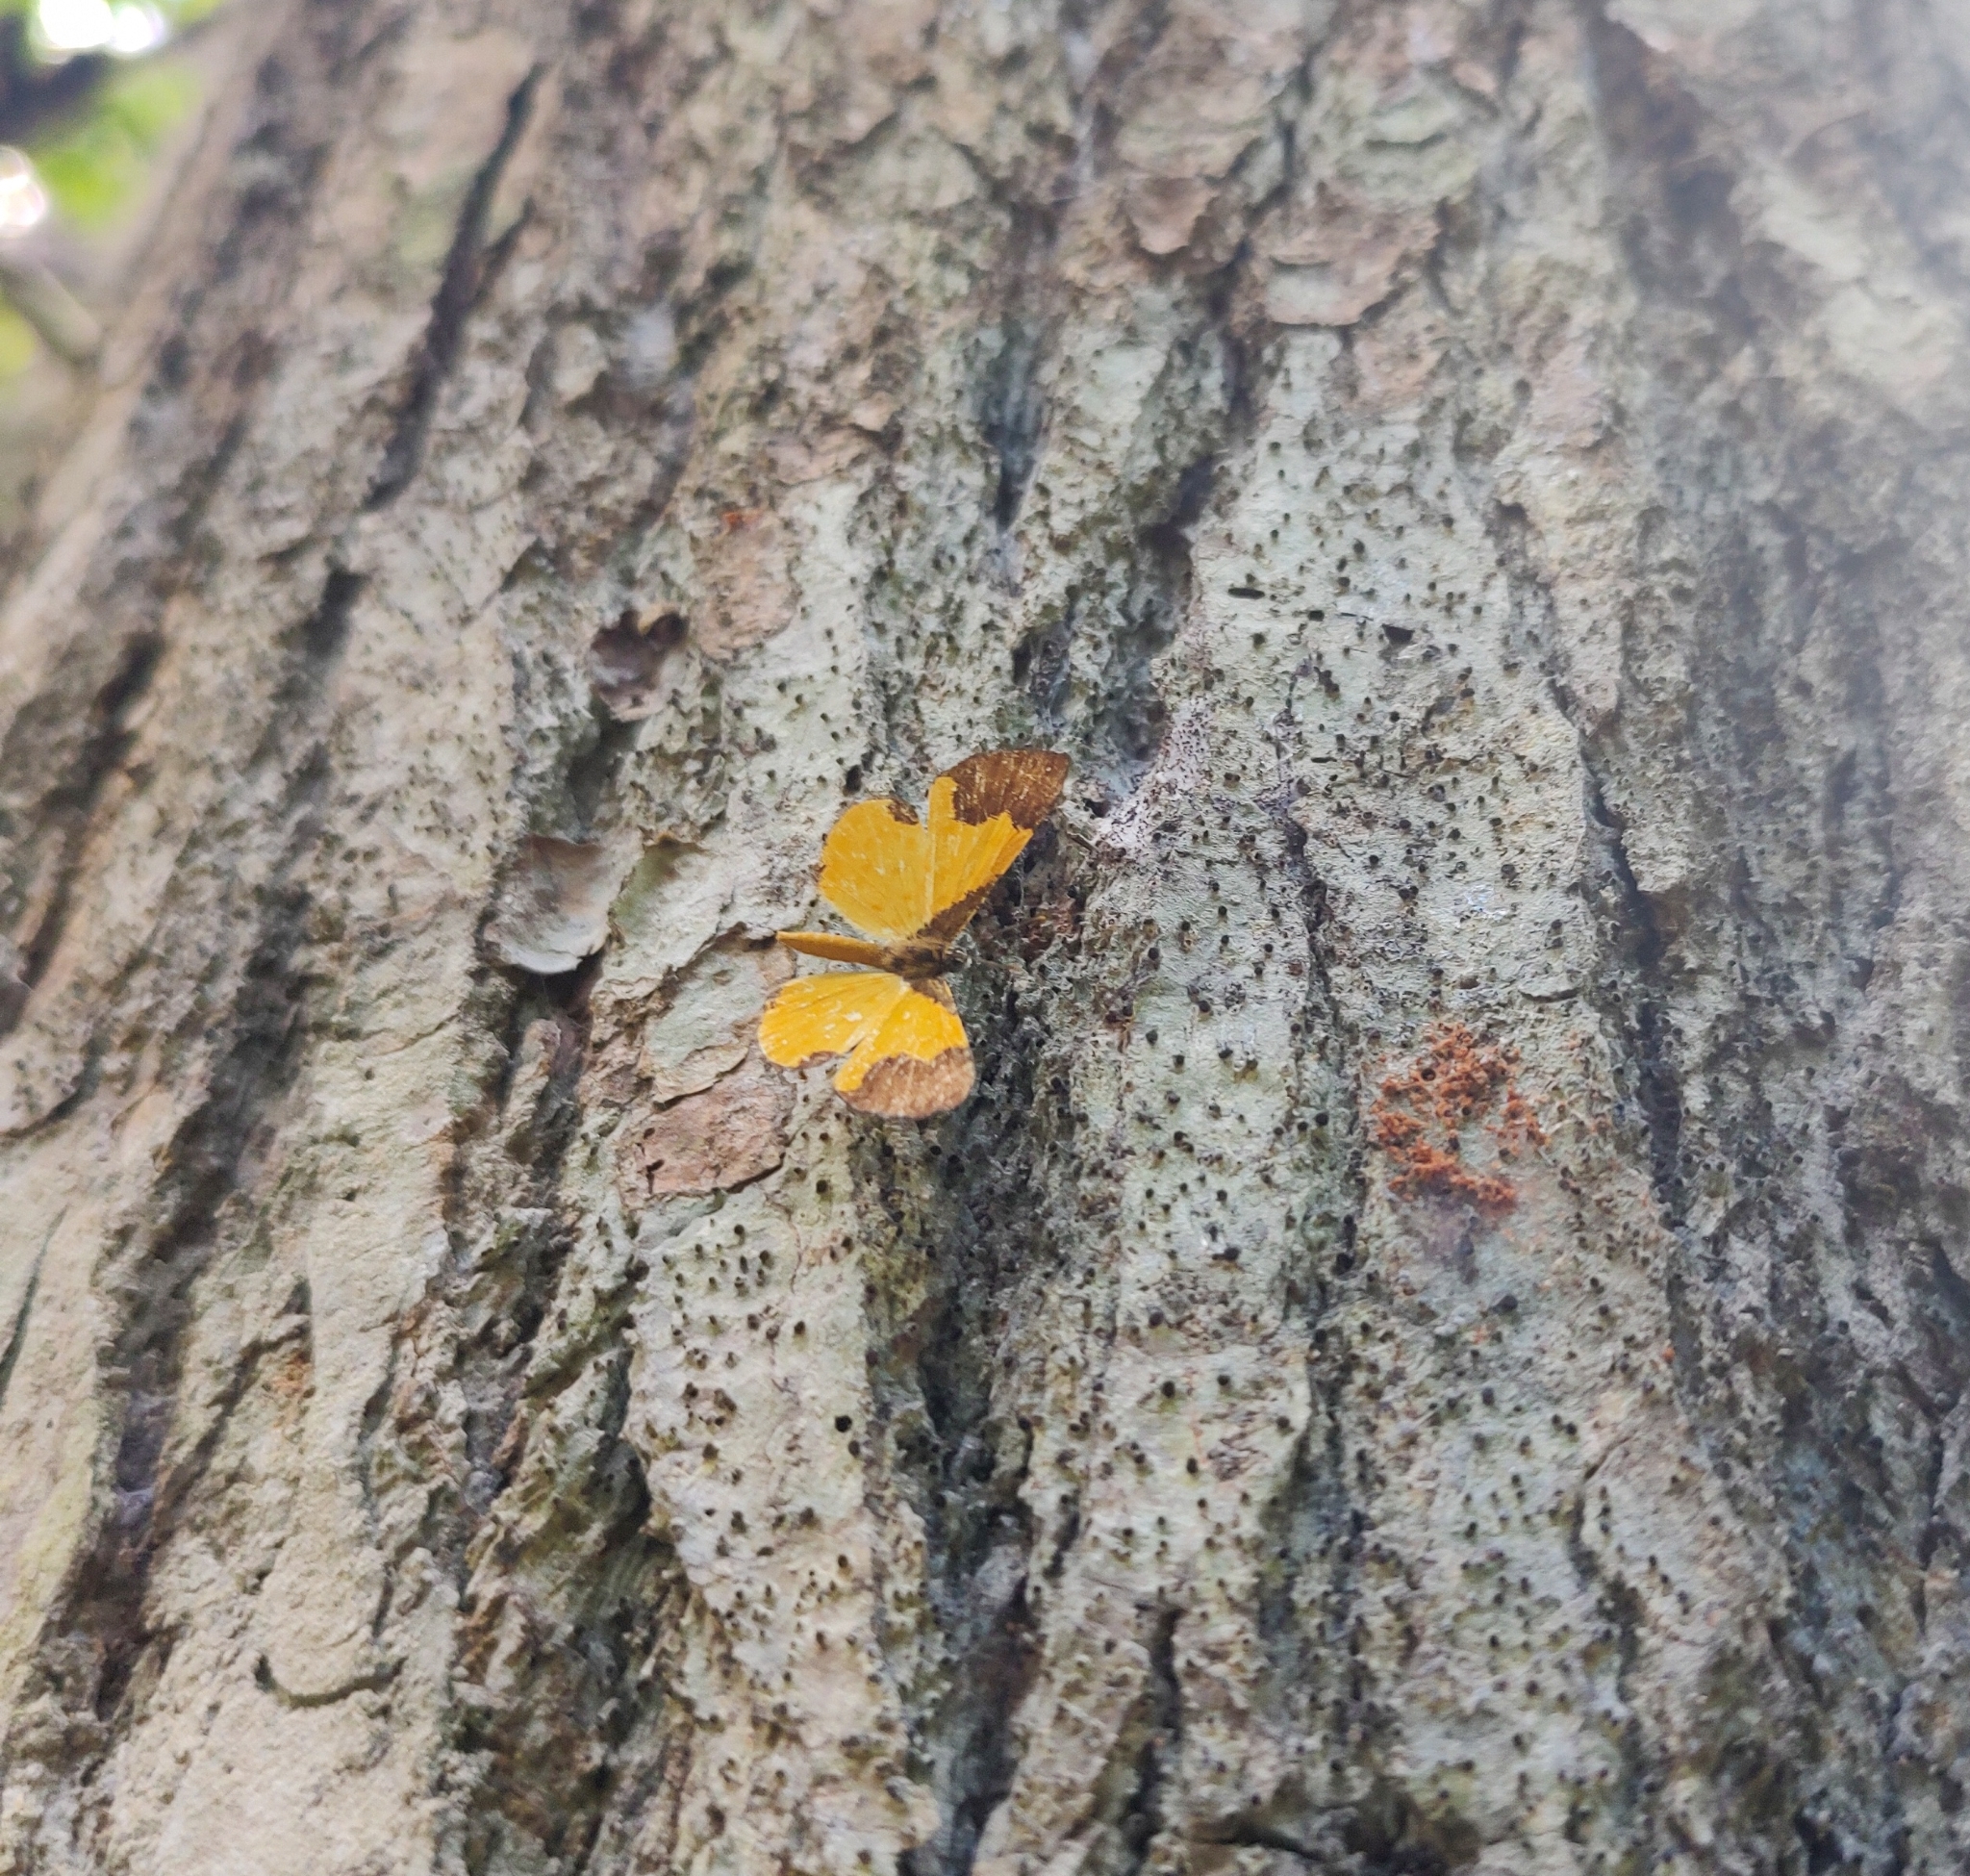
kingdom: Animalia
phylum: Arthropoda
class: Insecta
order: Lepidoptera
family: Riodinidae
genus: Echenais
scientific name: Echenais Adelotypa bolena
